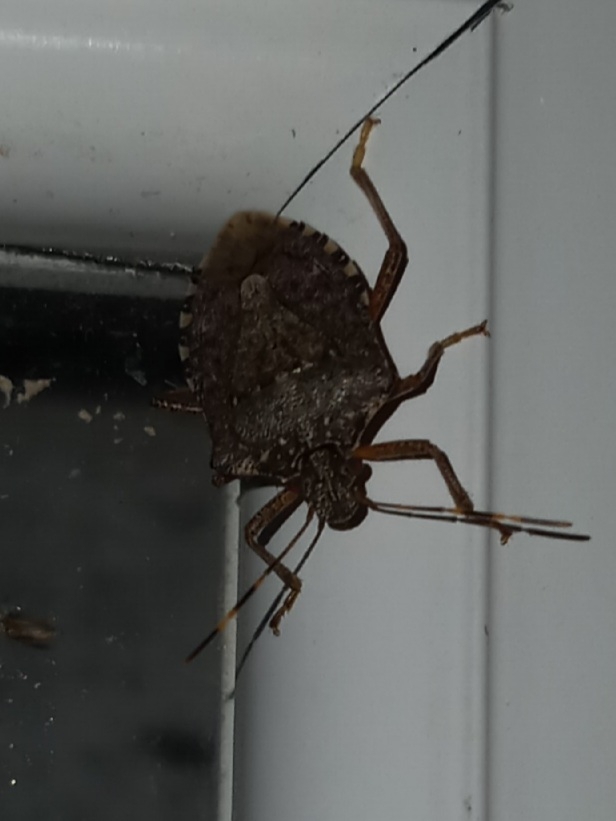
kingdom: Animalia
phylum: Arthropoda
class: Insecta
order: Hemiptera
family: Pentatomidae
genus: Halyomorpha
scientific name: Halyomorpha halys
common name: Brown marmorated stink bug
